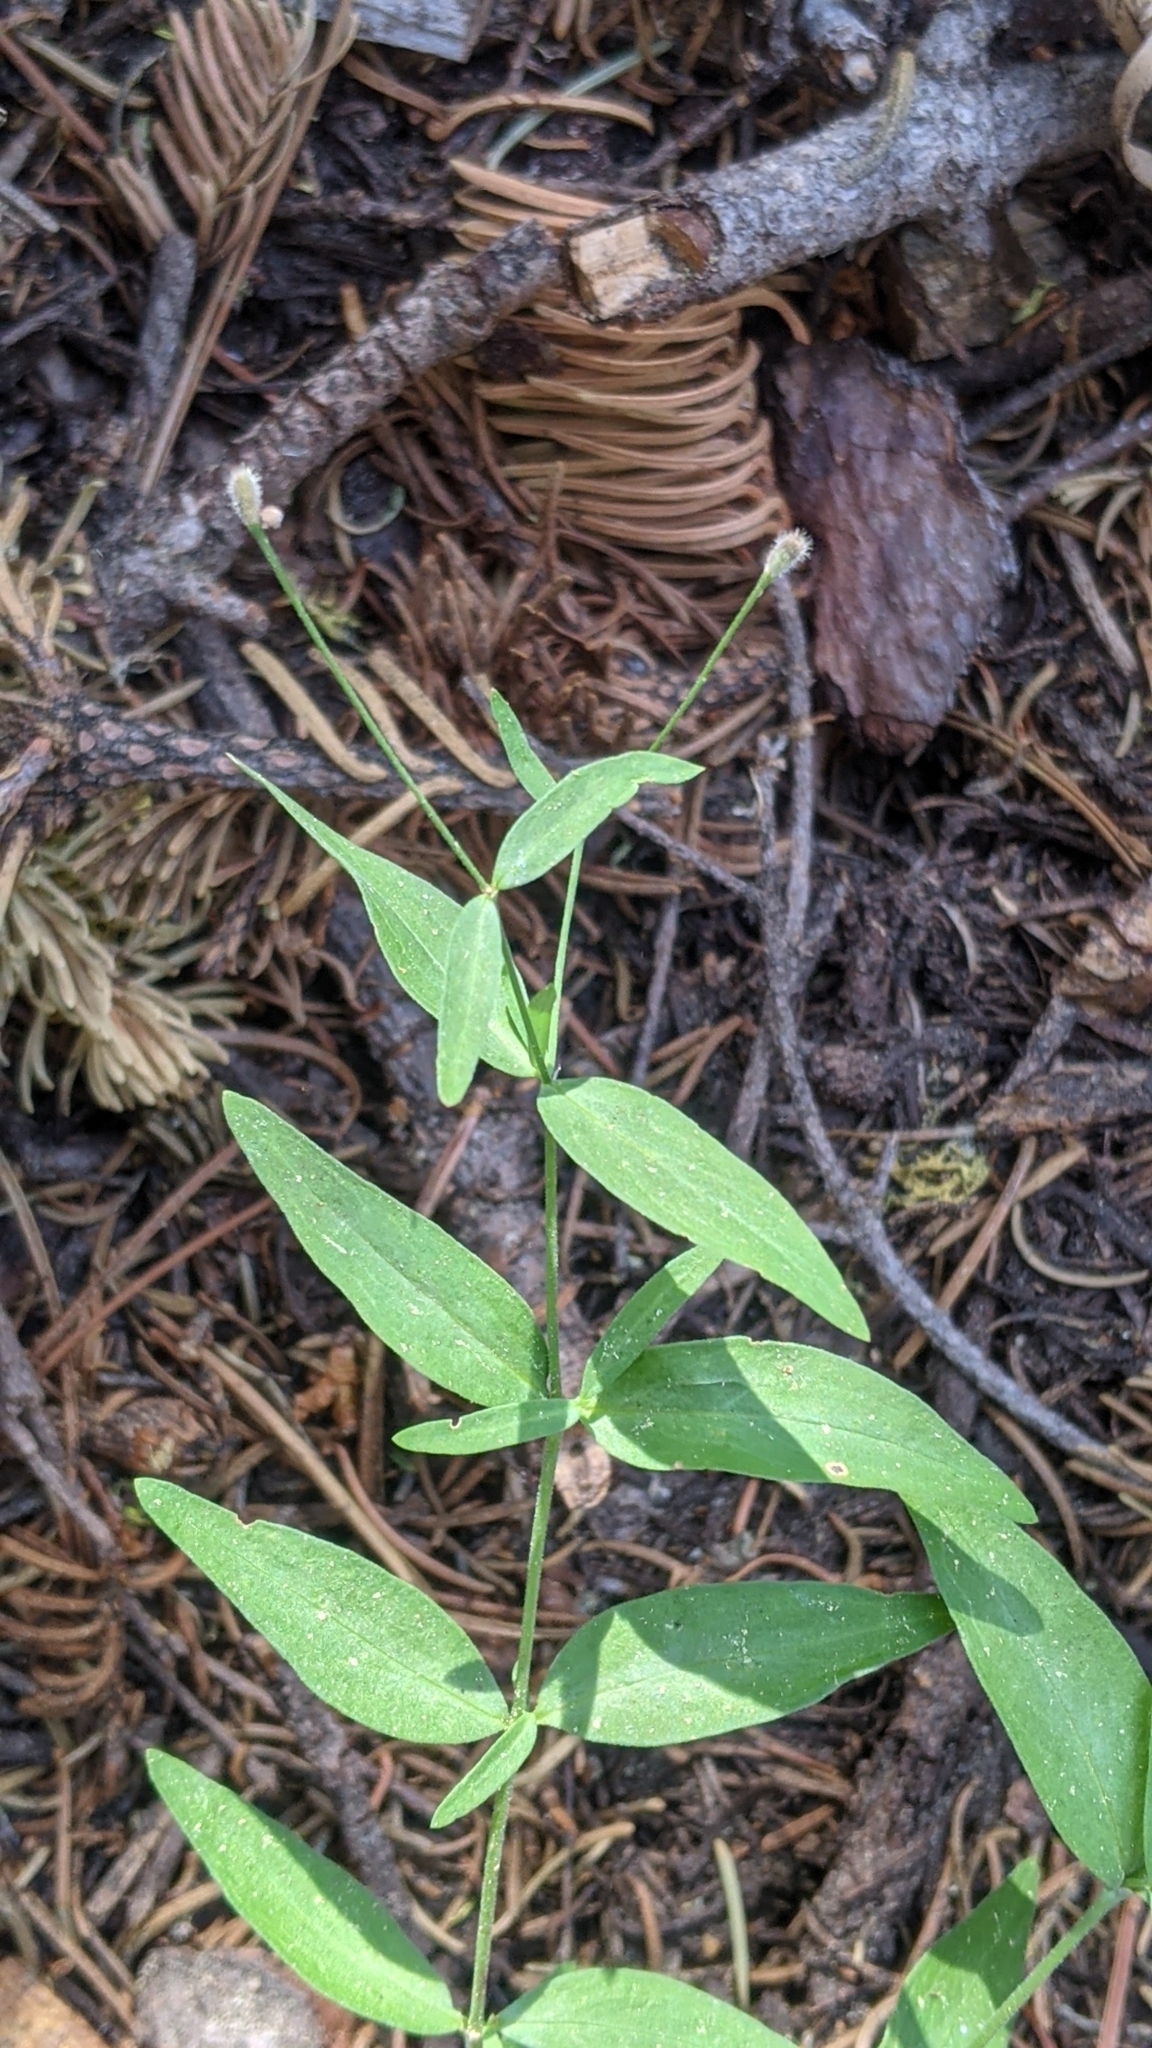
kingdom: Plantae
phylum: Tracheophyta
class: Magnoliopsida
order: Gentianales
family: Rubiaceae
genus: Kelloggia
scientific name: Kelloggia galioides
